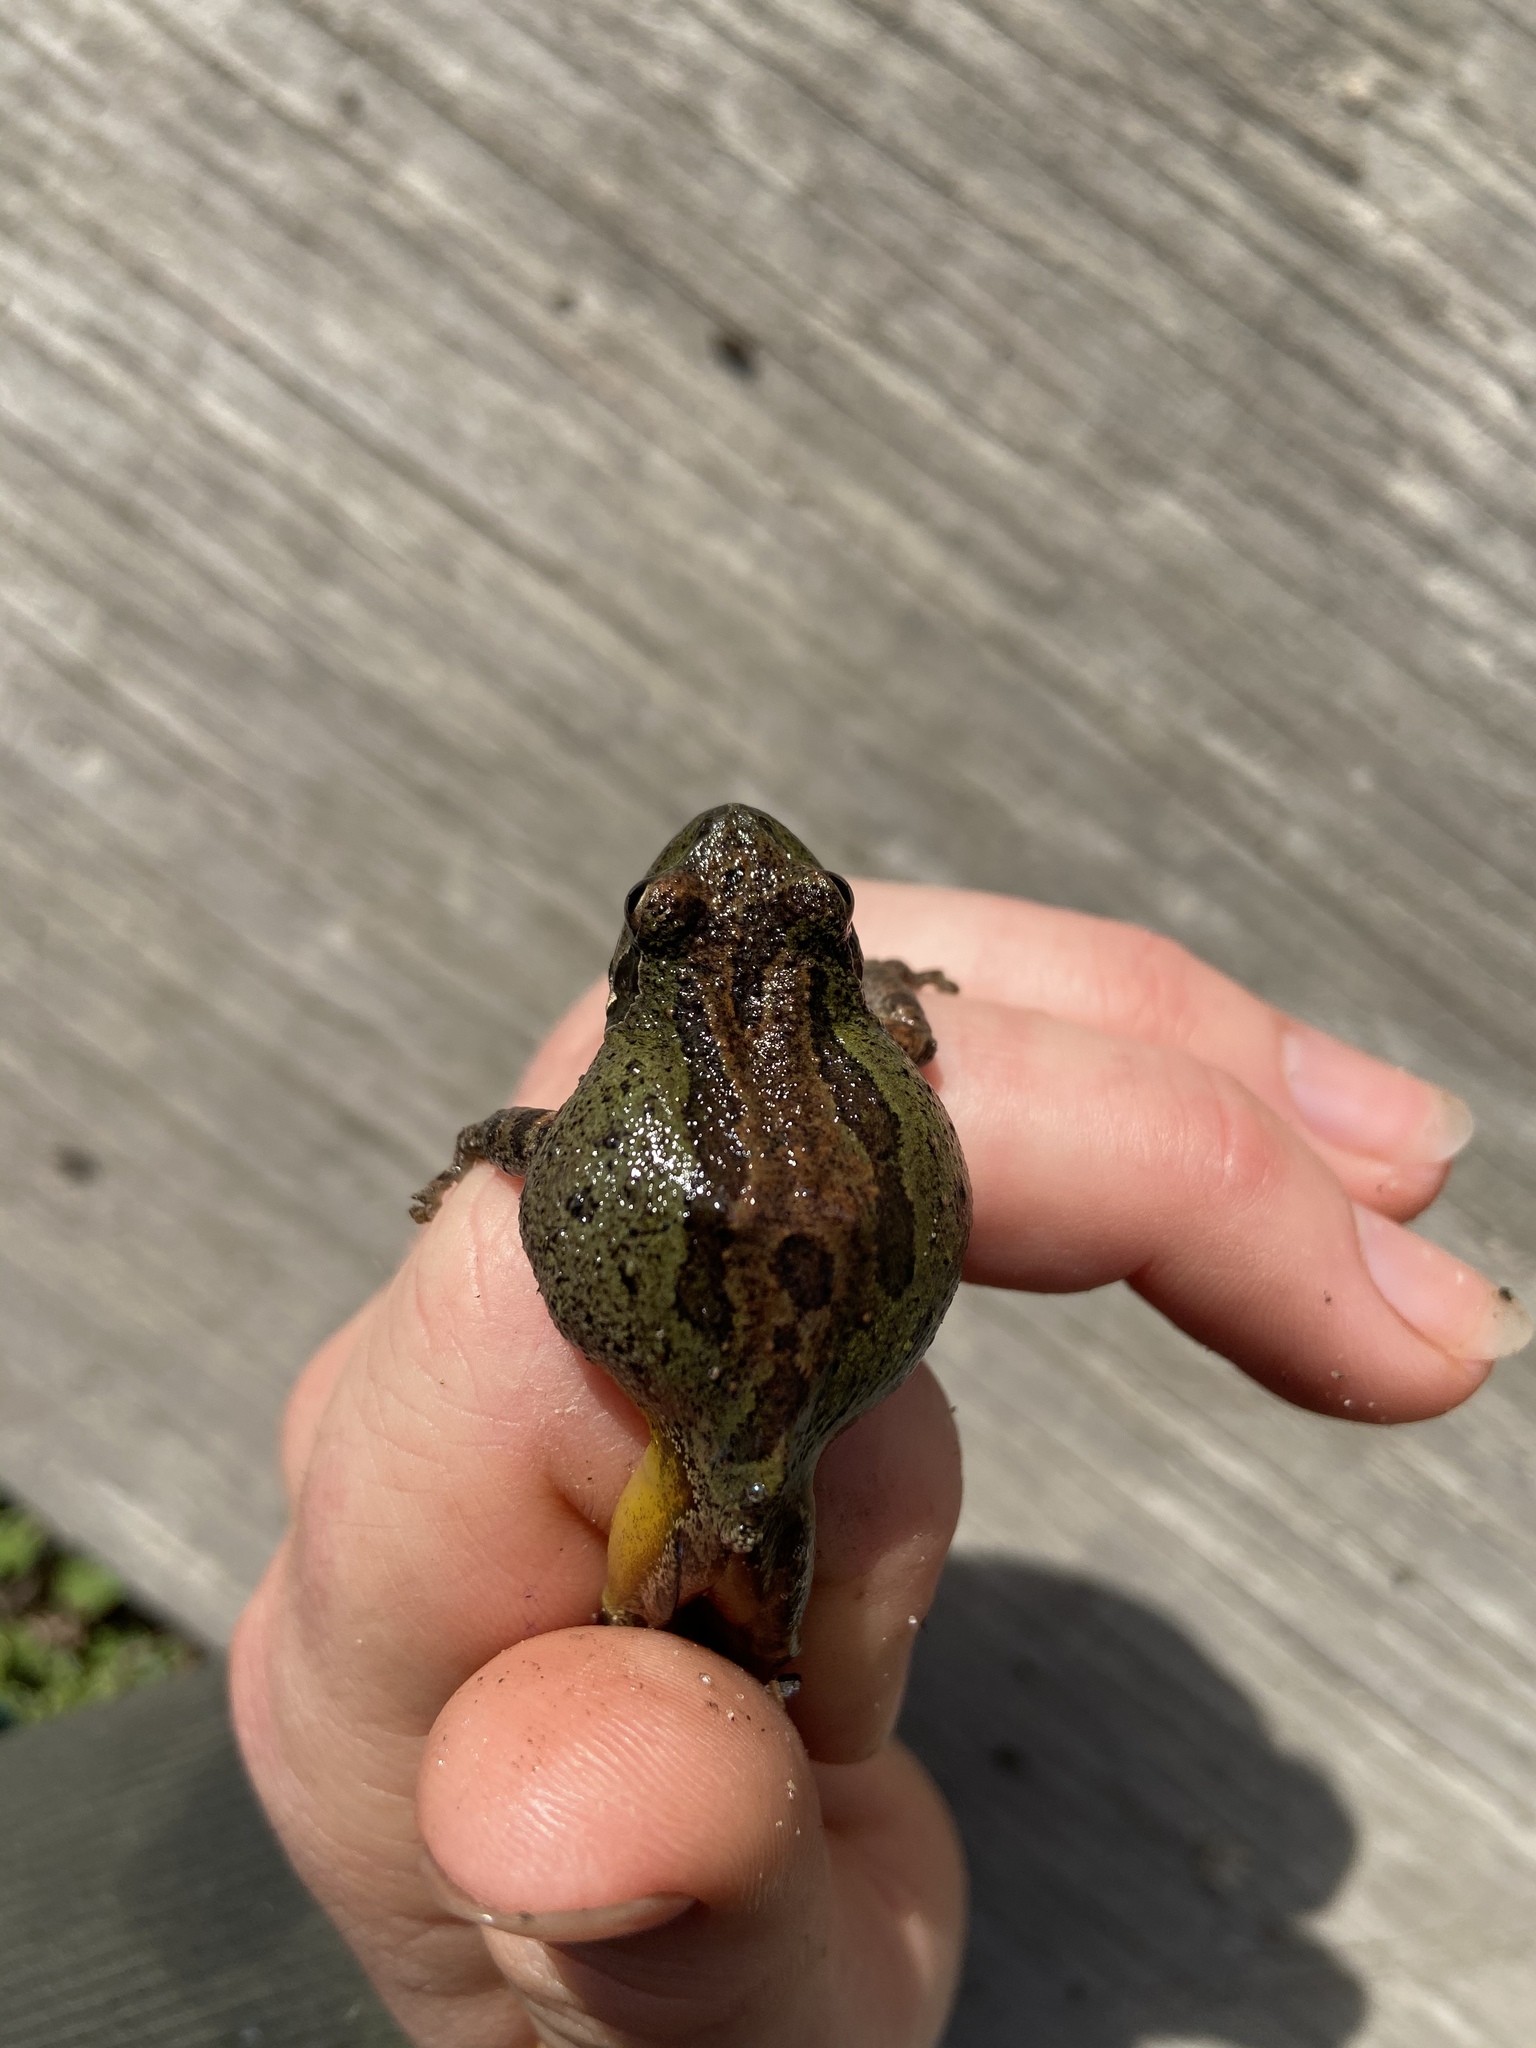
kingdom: Animalia
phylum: Chordata
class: Amphibia
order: Anura
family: Hylidae
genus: Pseudacris
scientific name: Pseudacris regilla
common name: Pacific chorus frog
